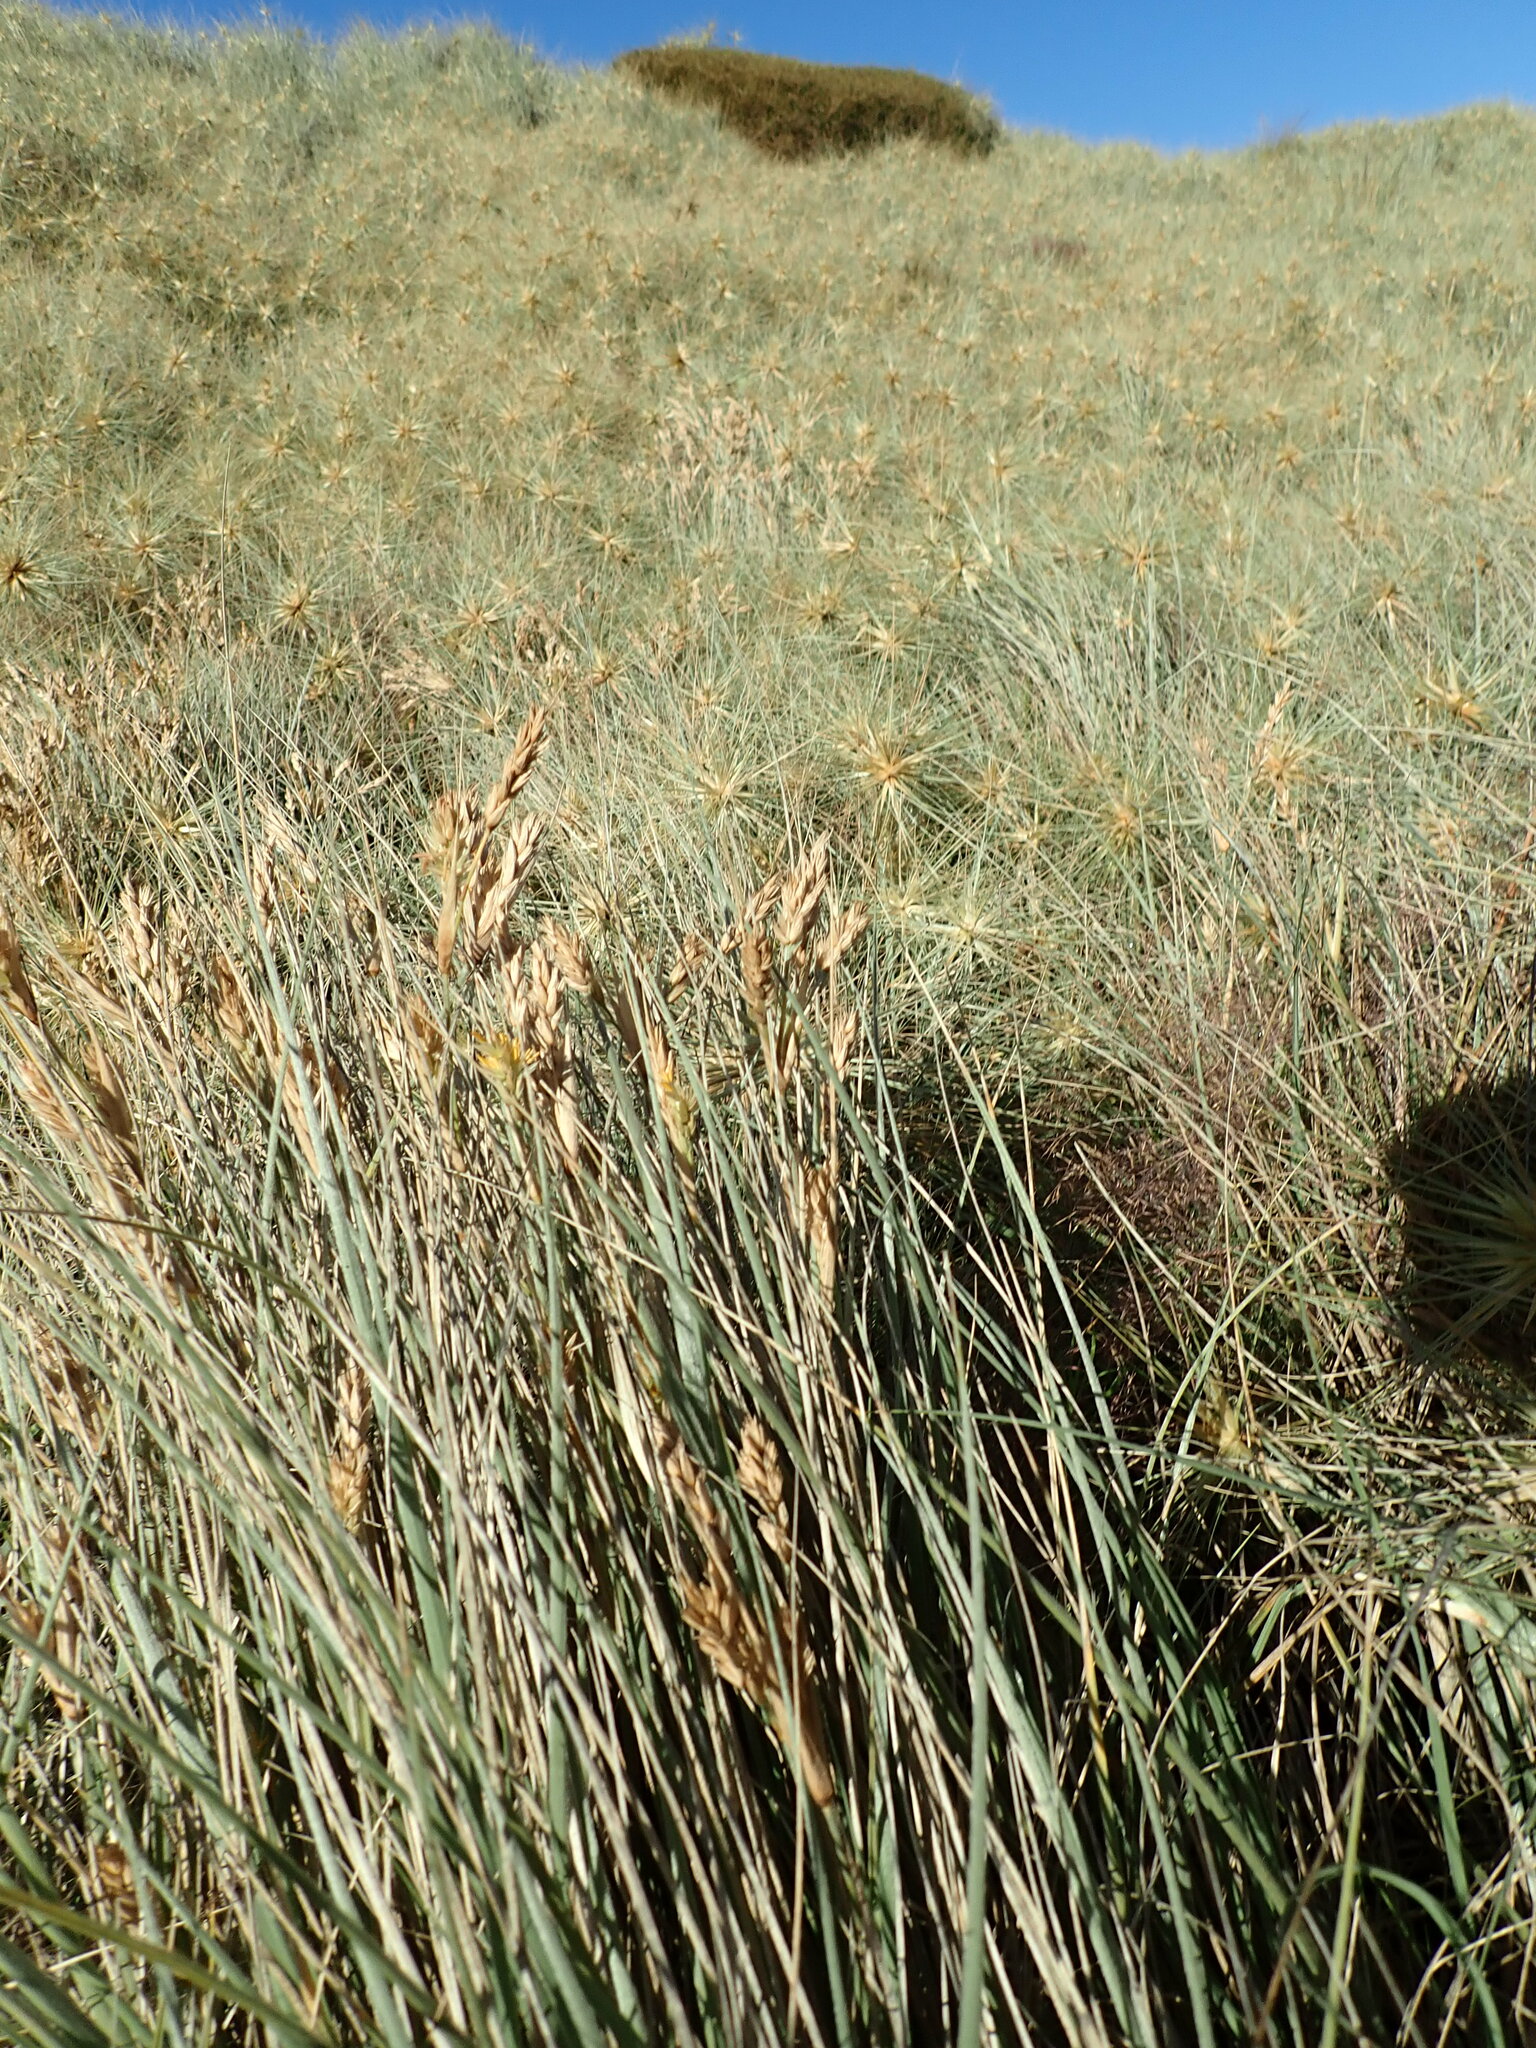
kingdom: Plantae
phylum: Tracheophyta
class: Liliopsida
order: Poales
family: Poaceae
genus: Spinifex
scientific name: Spinifex sericeus
